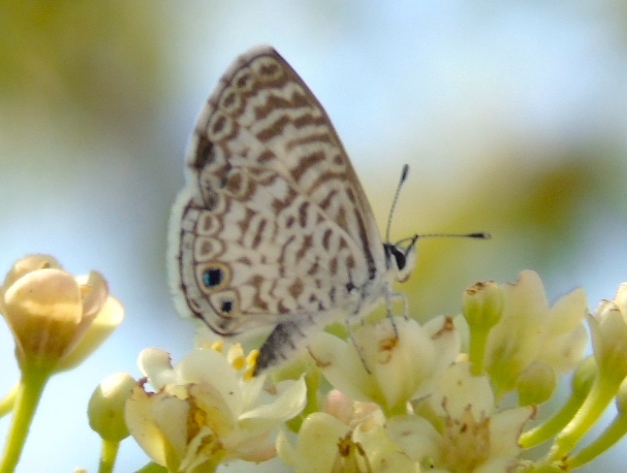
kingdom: Animalia
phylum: Arthropoda
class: Insecta
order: Lepidoptera
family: Lycaenidae
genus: Leptotes
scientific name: Leptotes theonus
